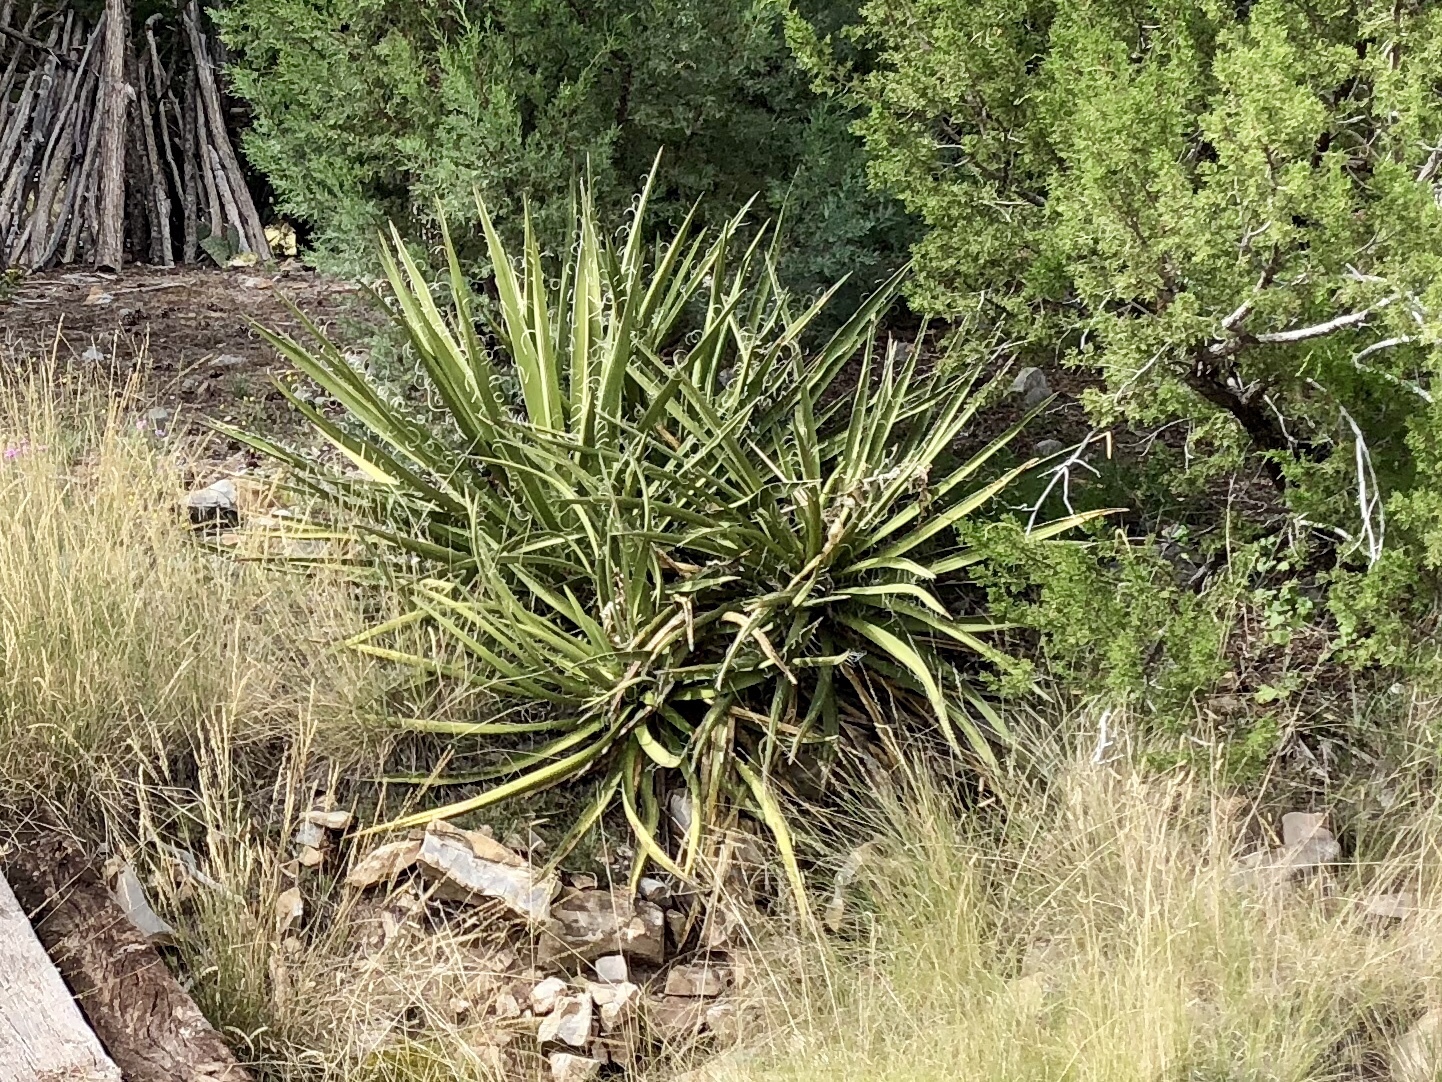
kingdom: Plantae
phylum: Tracheophyta
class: Liliopsida
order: Asparagales
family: Asparagaceae
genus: Yucca
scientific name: Yucca baccata
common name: Banana yucca
